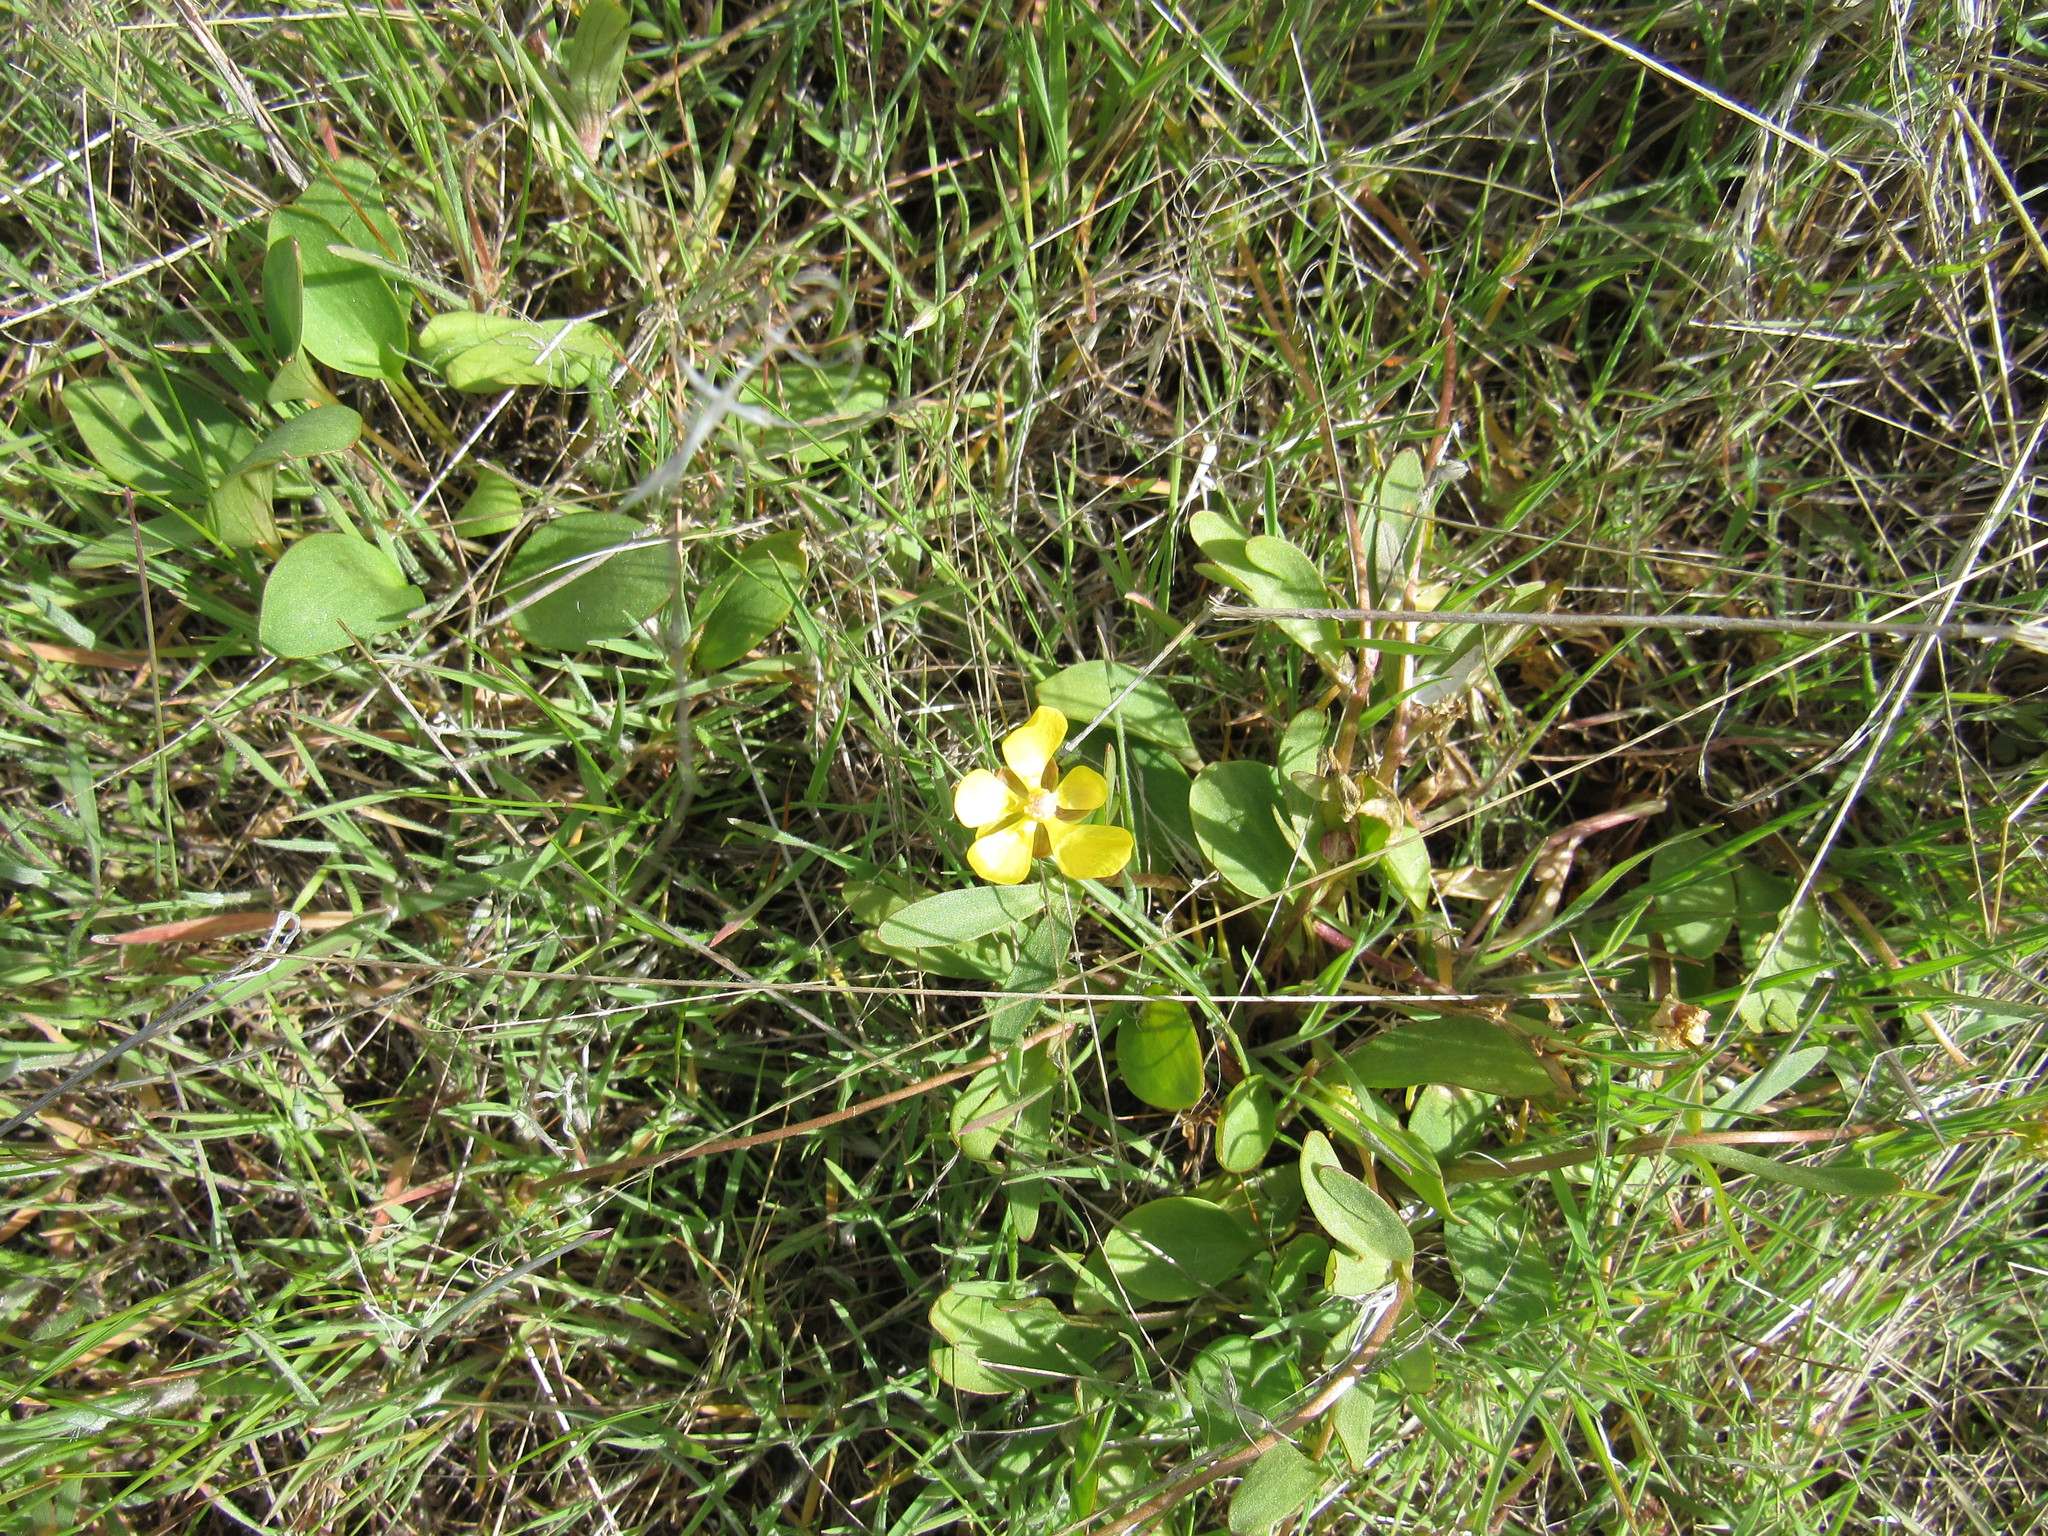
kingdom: Plantae
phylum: Tracheophyta
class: Magnoliopsida
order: Ranunculales
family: Ranunculaceae
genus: Ranunculus
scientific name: Ranunculus glaberrimus
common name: Sagebrush buttercup
